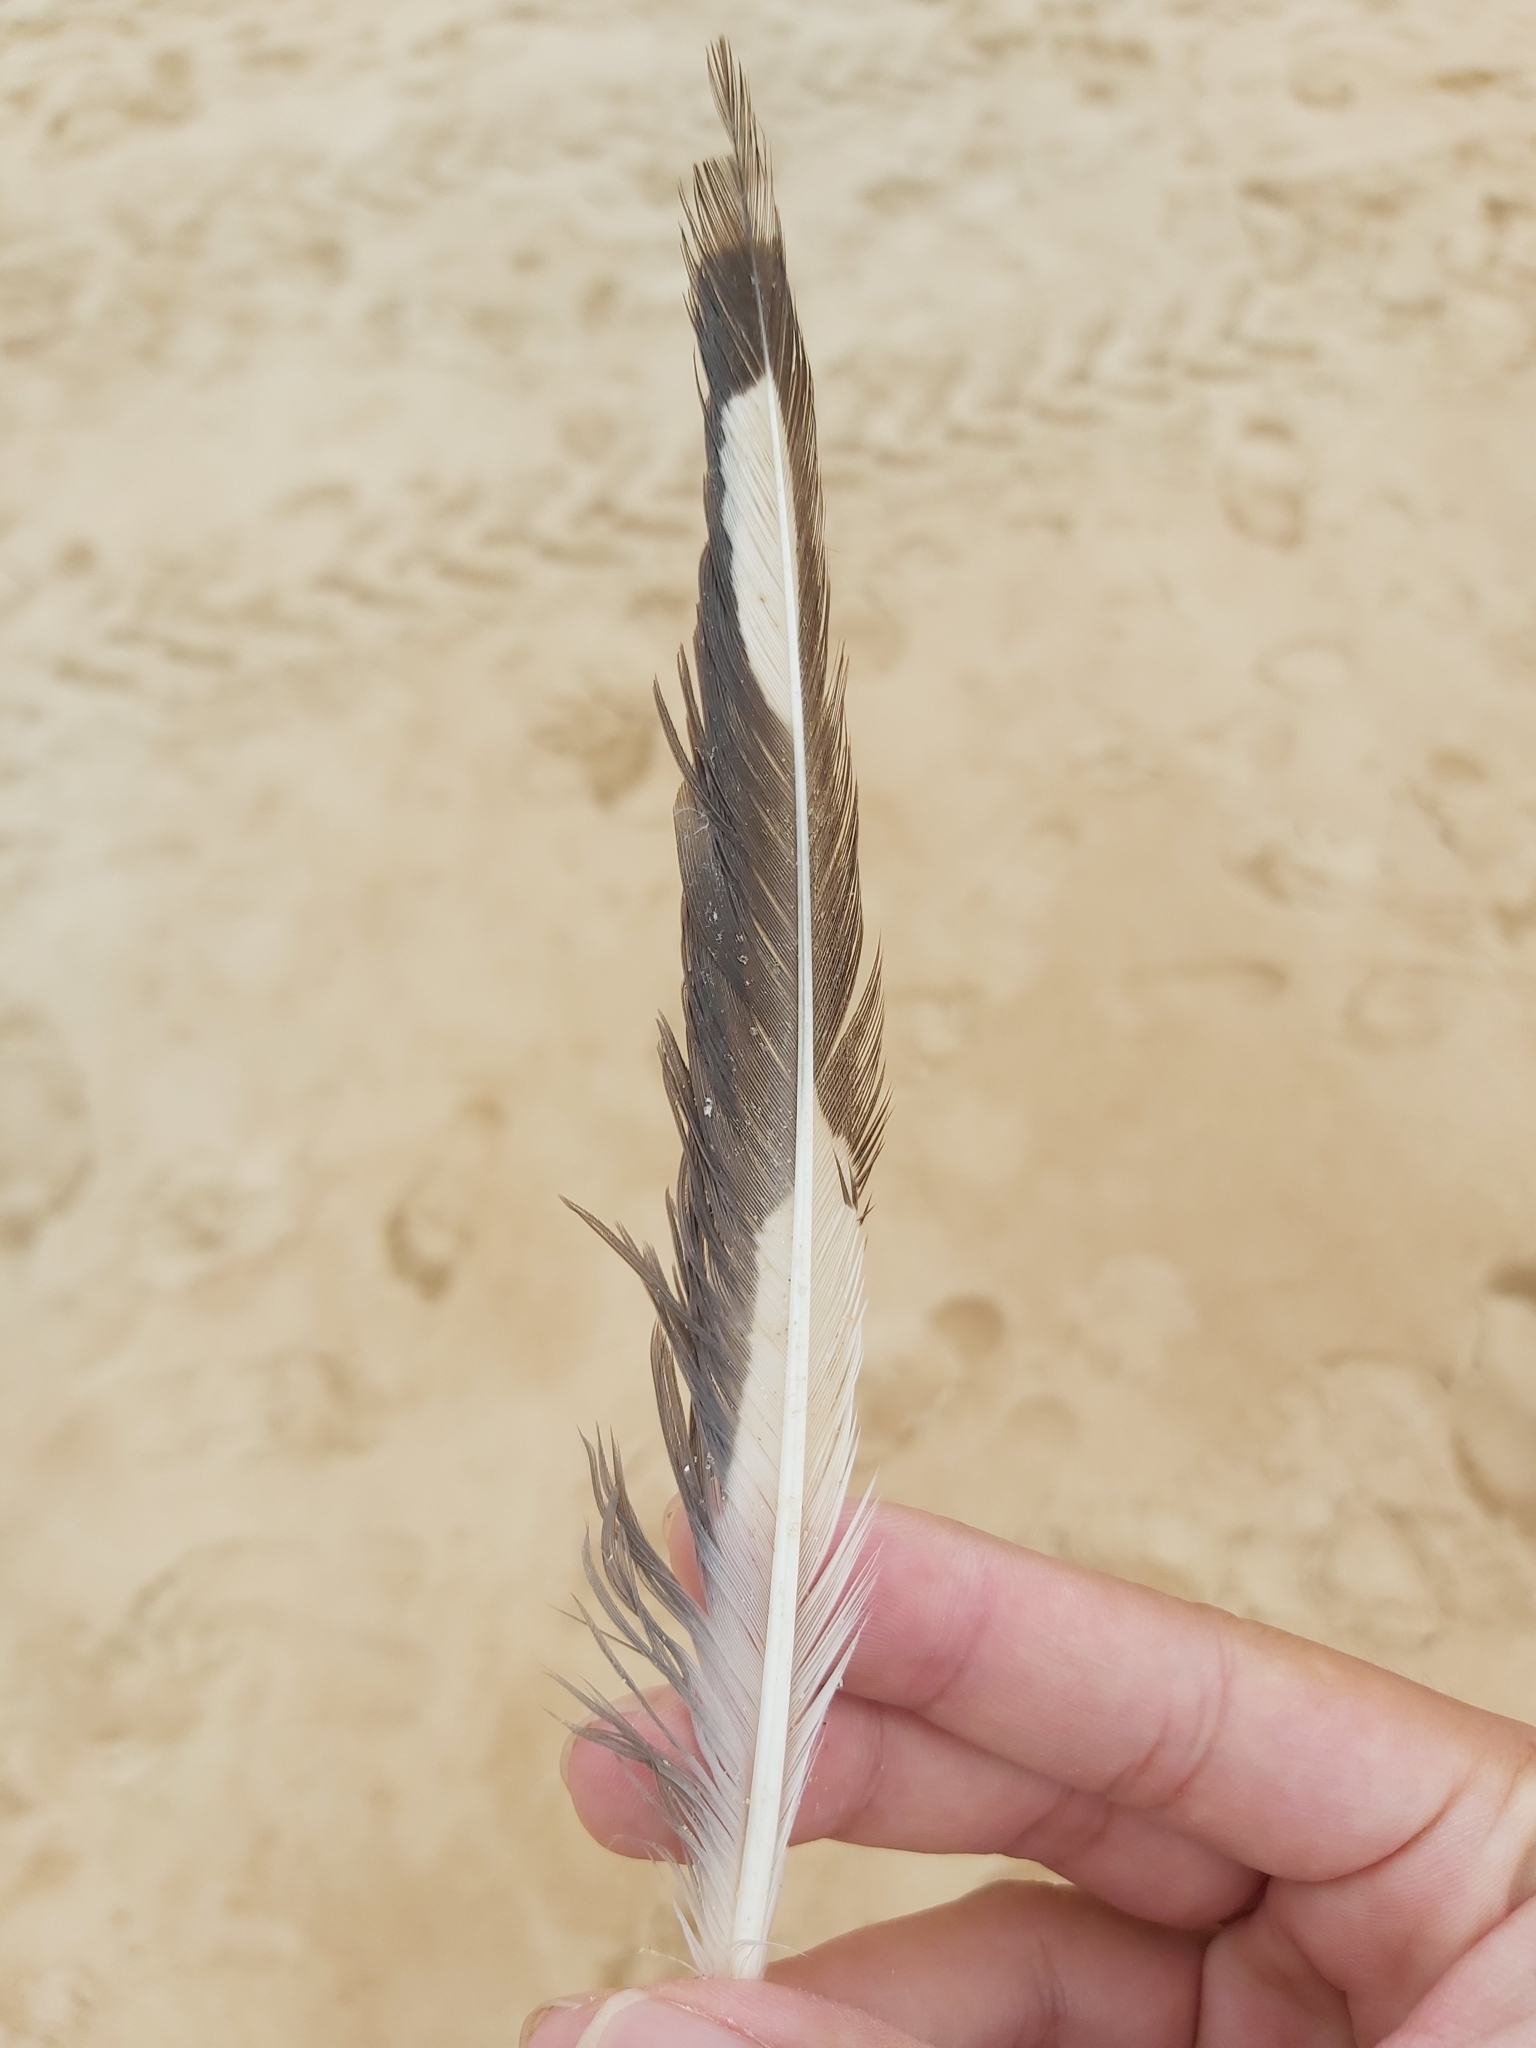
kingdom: Animalia
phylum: Chordata
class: Aves
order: Charadriiformes
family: Laridae
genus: Chroicocephalus
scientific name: Chroicocephalus novaehollandiae
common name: Silver gull
